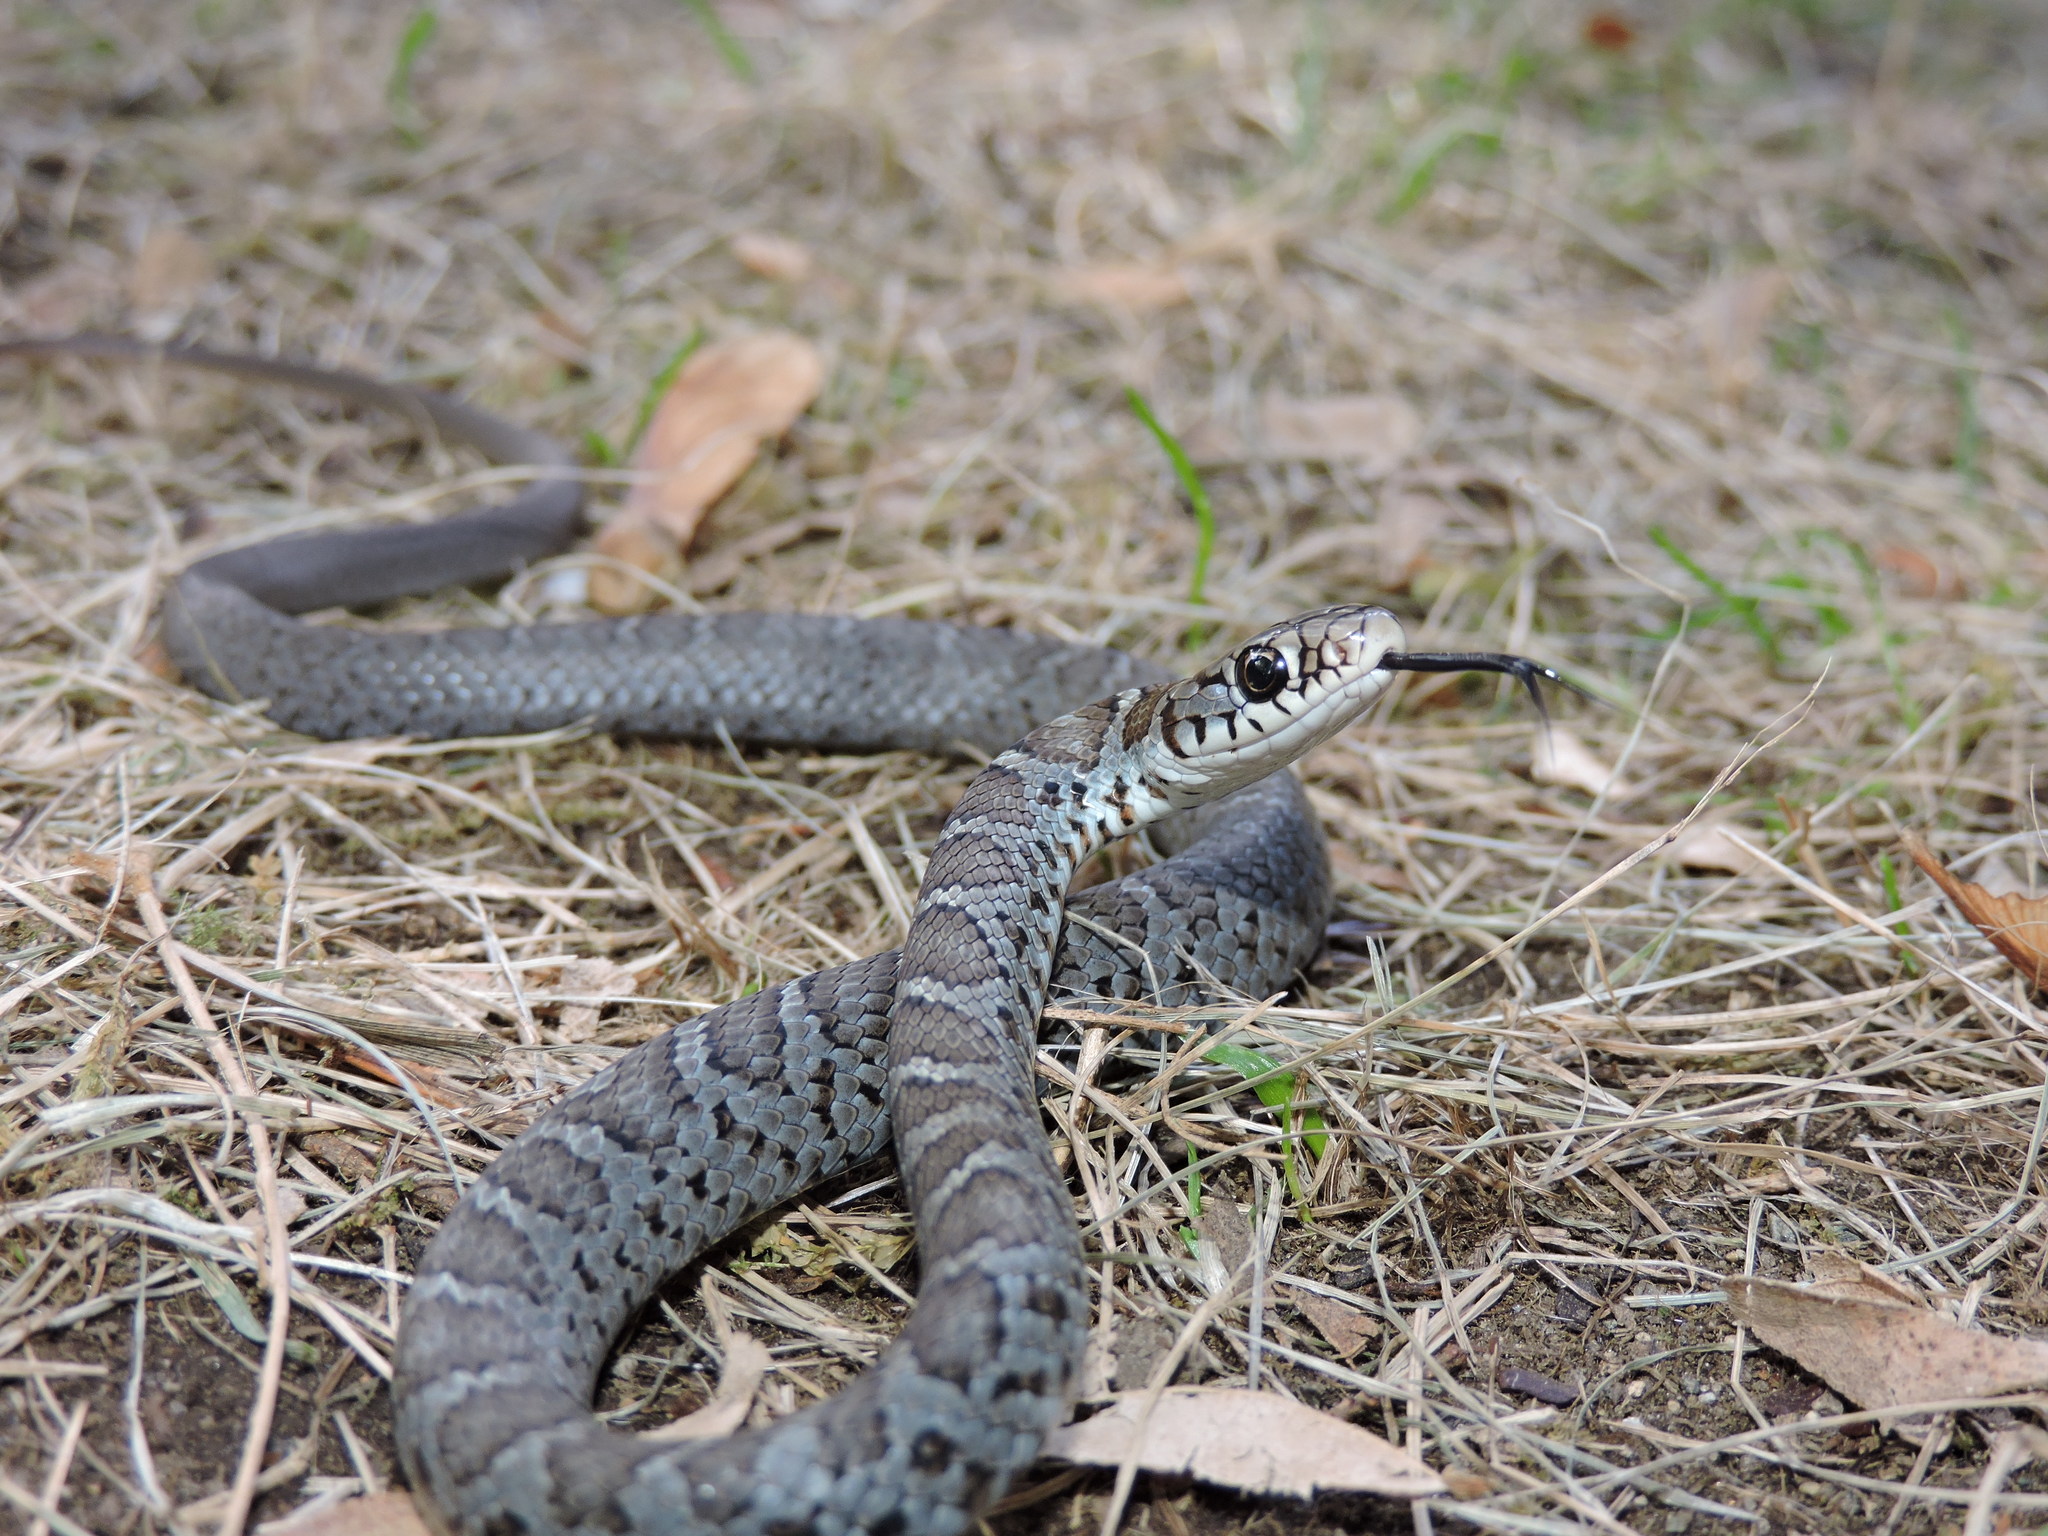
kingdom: Animalia
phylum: Chordata
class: Squamata
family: Colubridae
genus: Coluber
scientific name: Coluber constrictor
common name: Eastern racer
